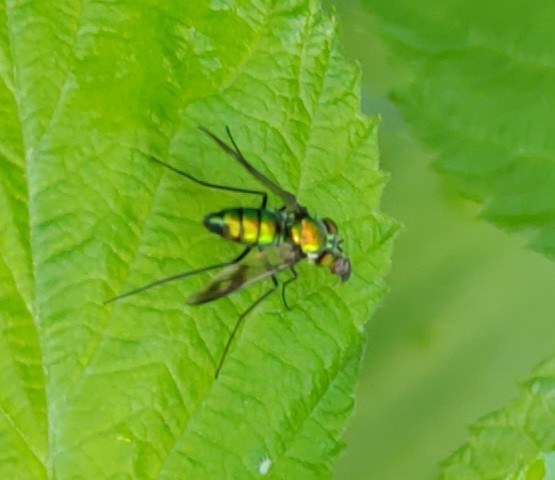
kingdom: Animalia
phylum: Arthropoda
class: Insecta
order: Diptera
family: Dolichopodidae
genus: Condylostylus
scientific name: Condylostylus patibulatus
